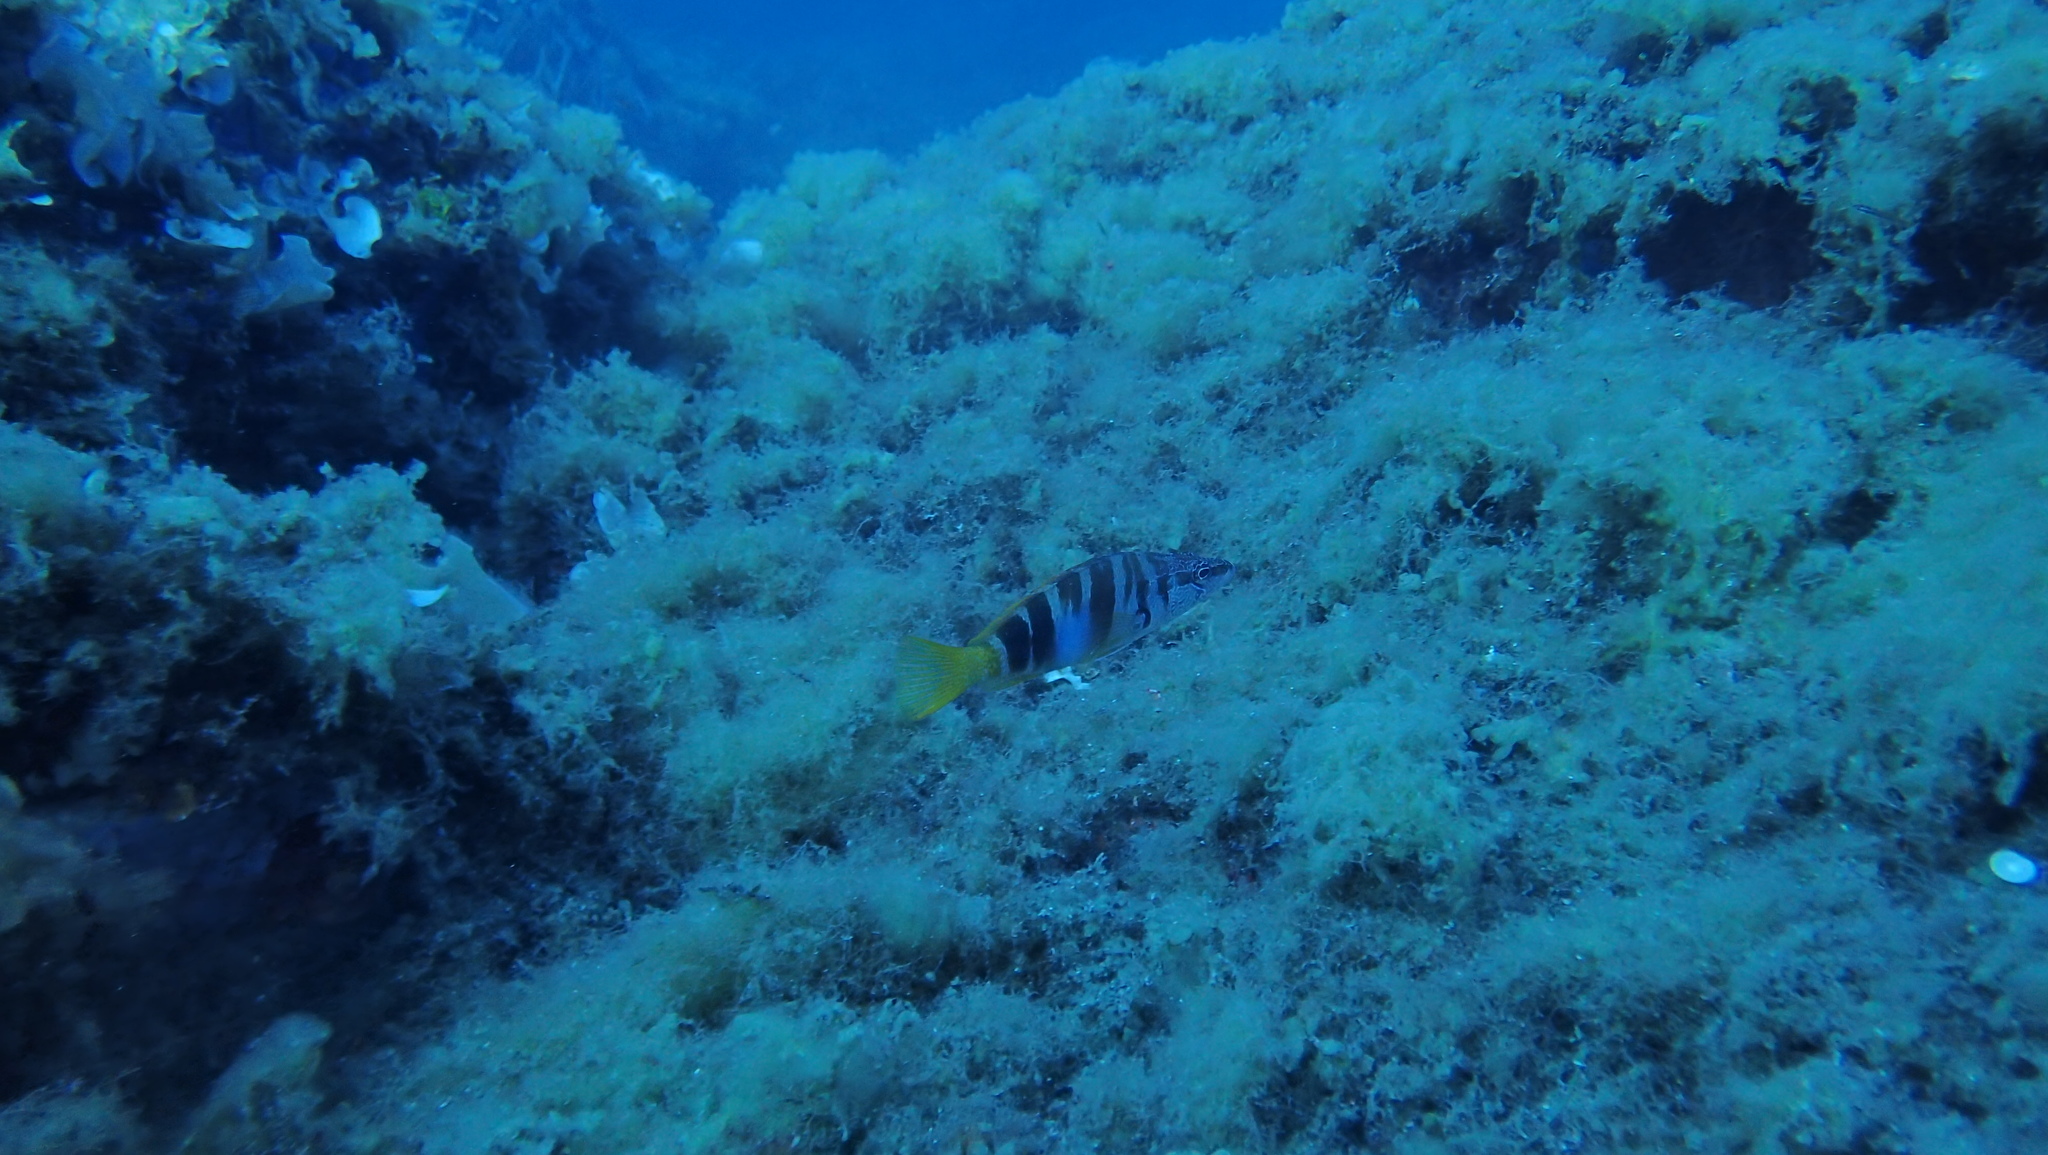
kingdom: Animalia
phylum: Chordata
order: Perciformes
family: Serranidae
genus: Serranus
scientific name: Serranus scriba
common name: Painted comber
